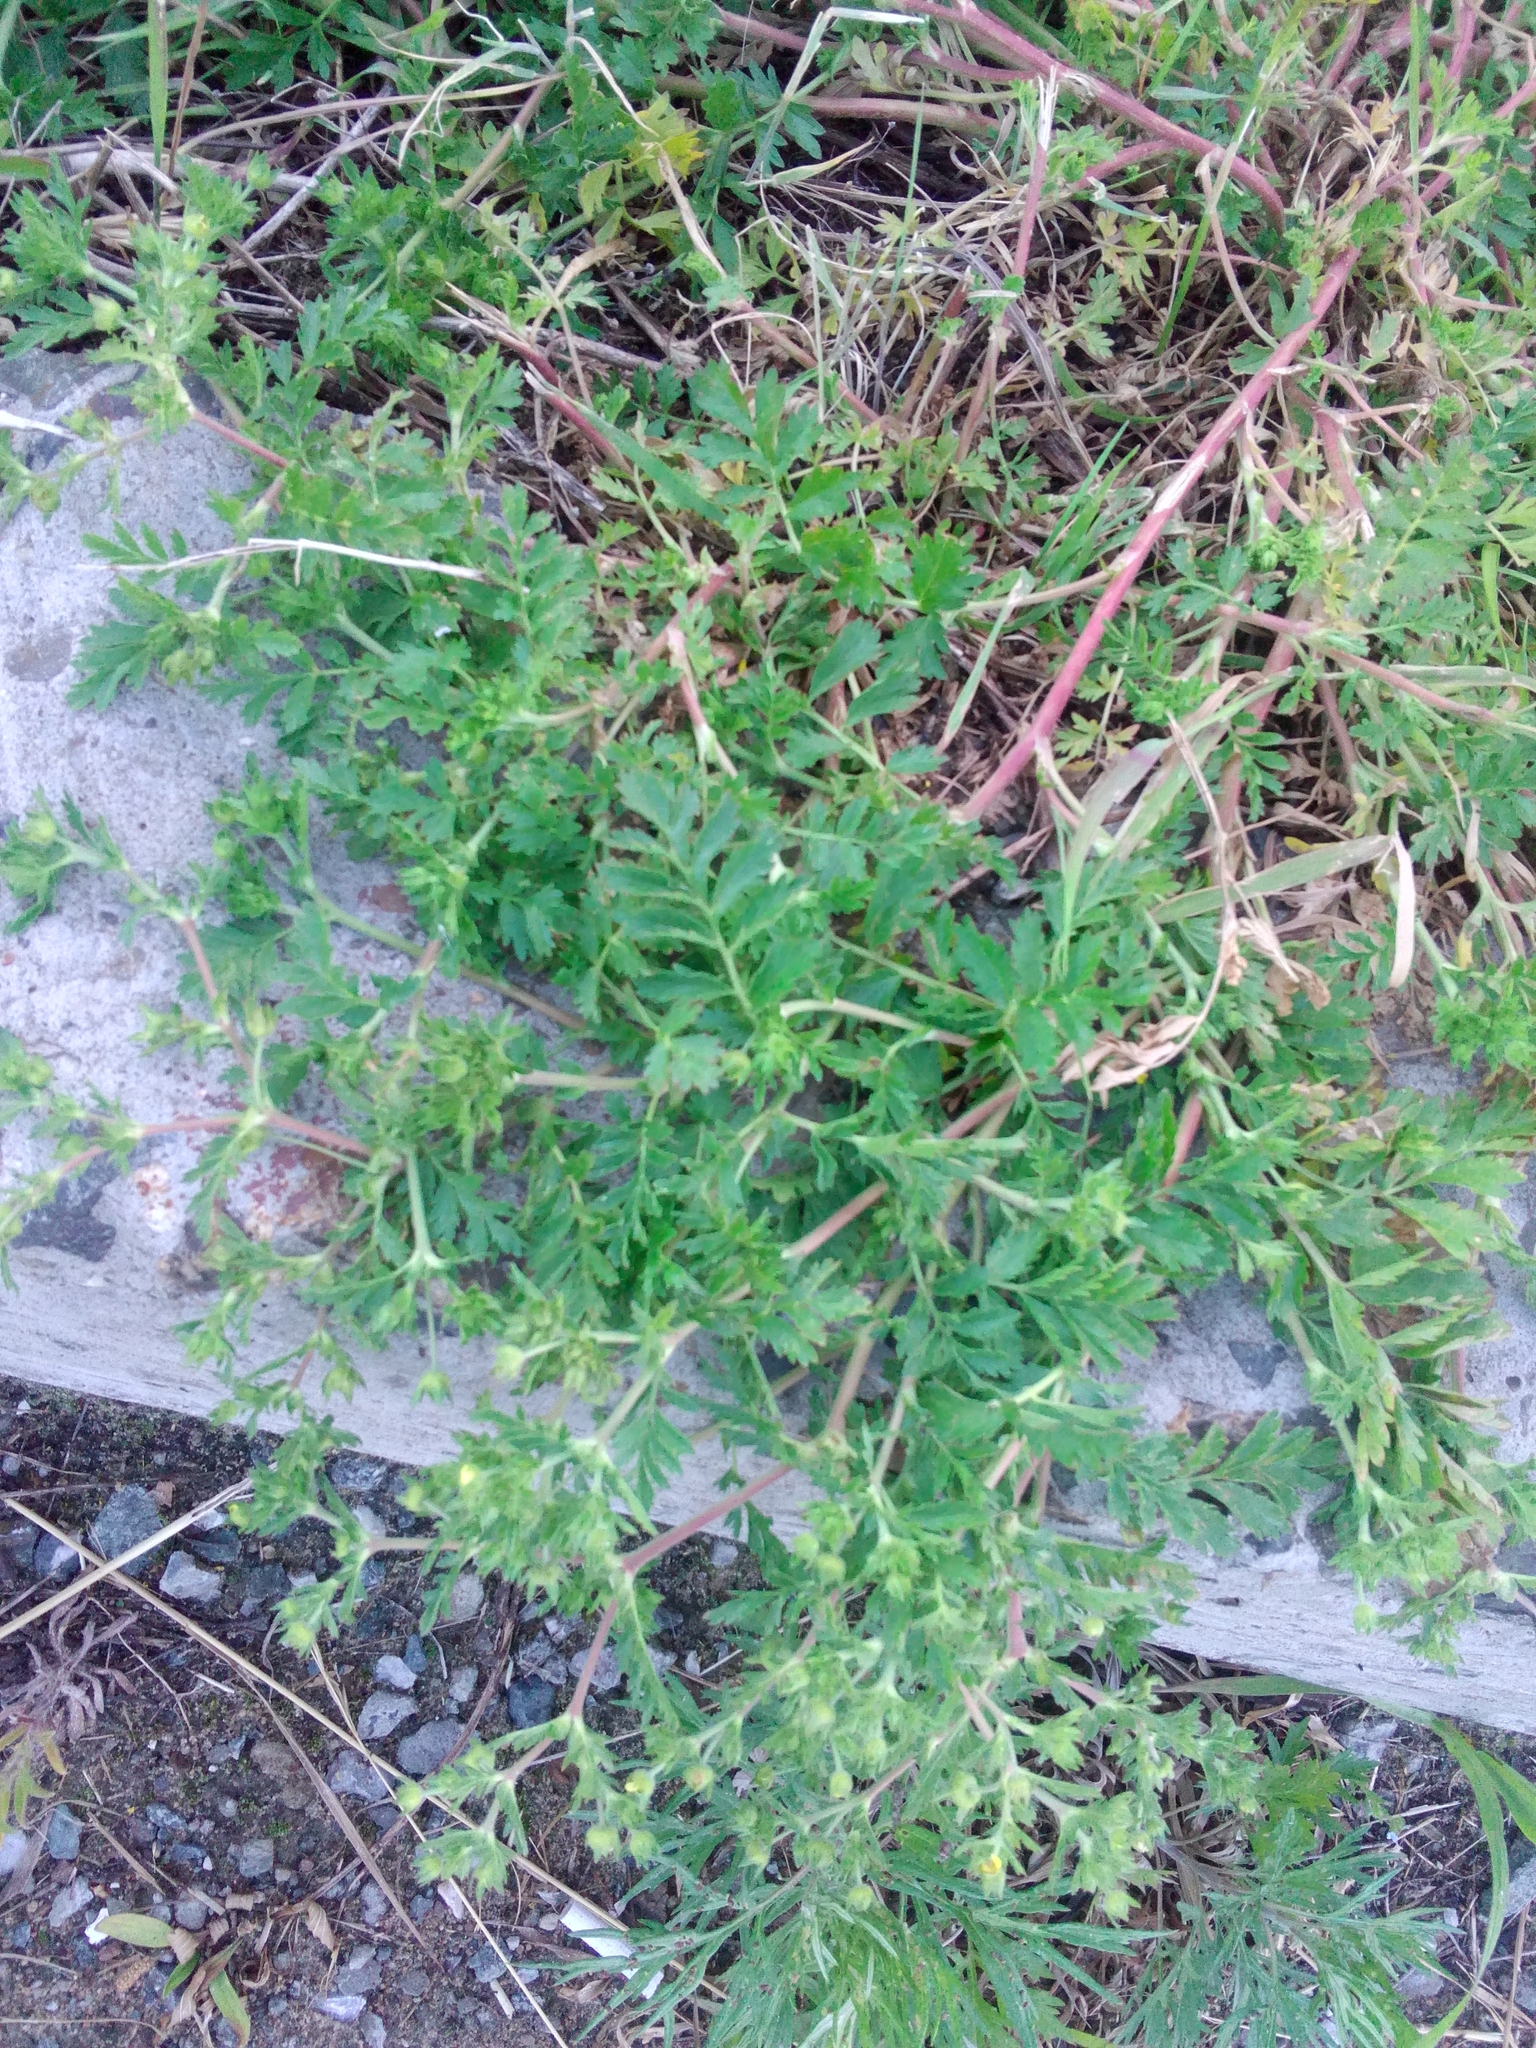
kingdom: Plantae
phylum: Tracheophyta
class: Magnoliopsida
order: Rosales
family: Rosaceae
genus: Potentilla
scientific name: Potentilla supina
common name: Prostrate cinquefoil
